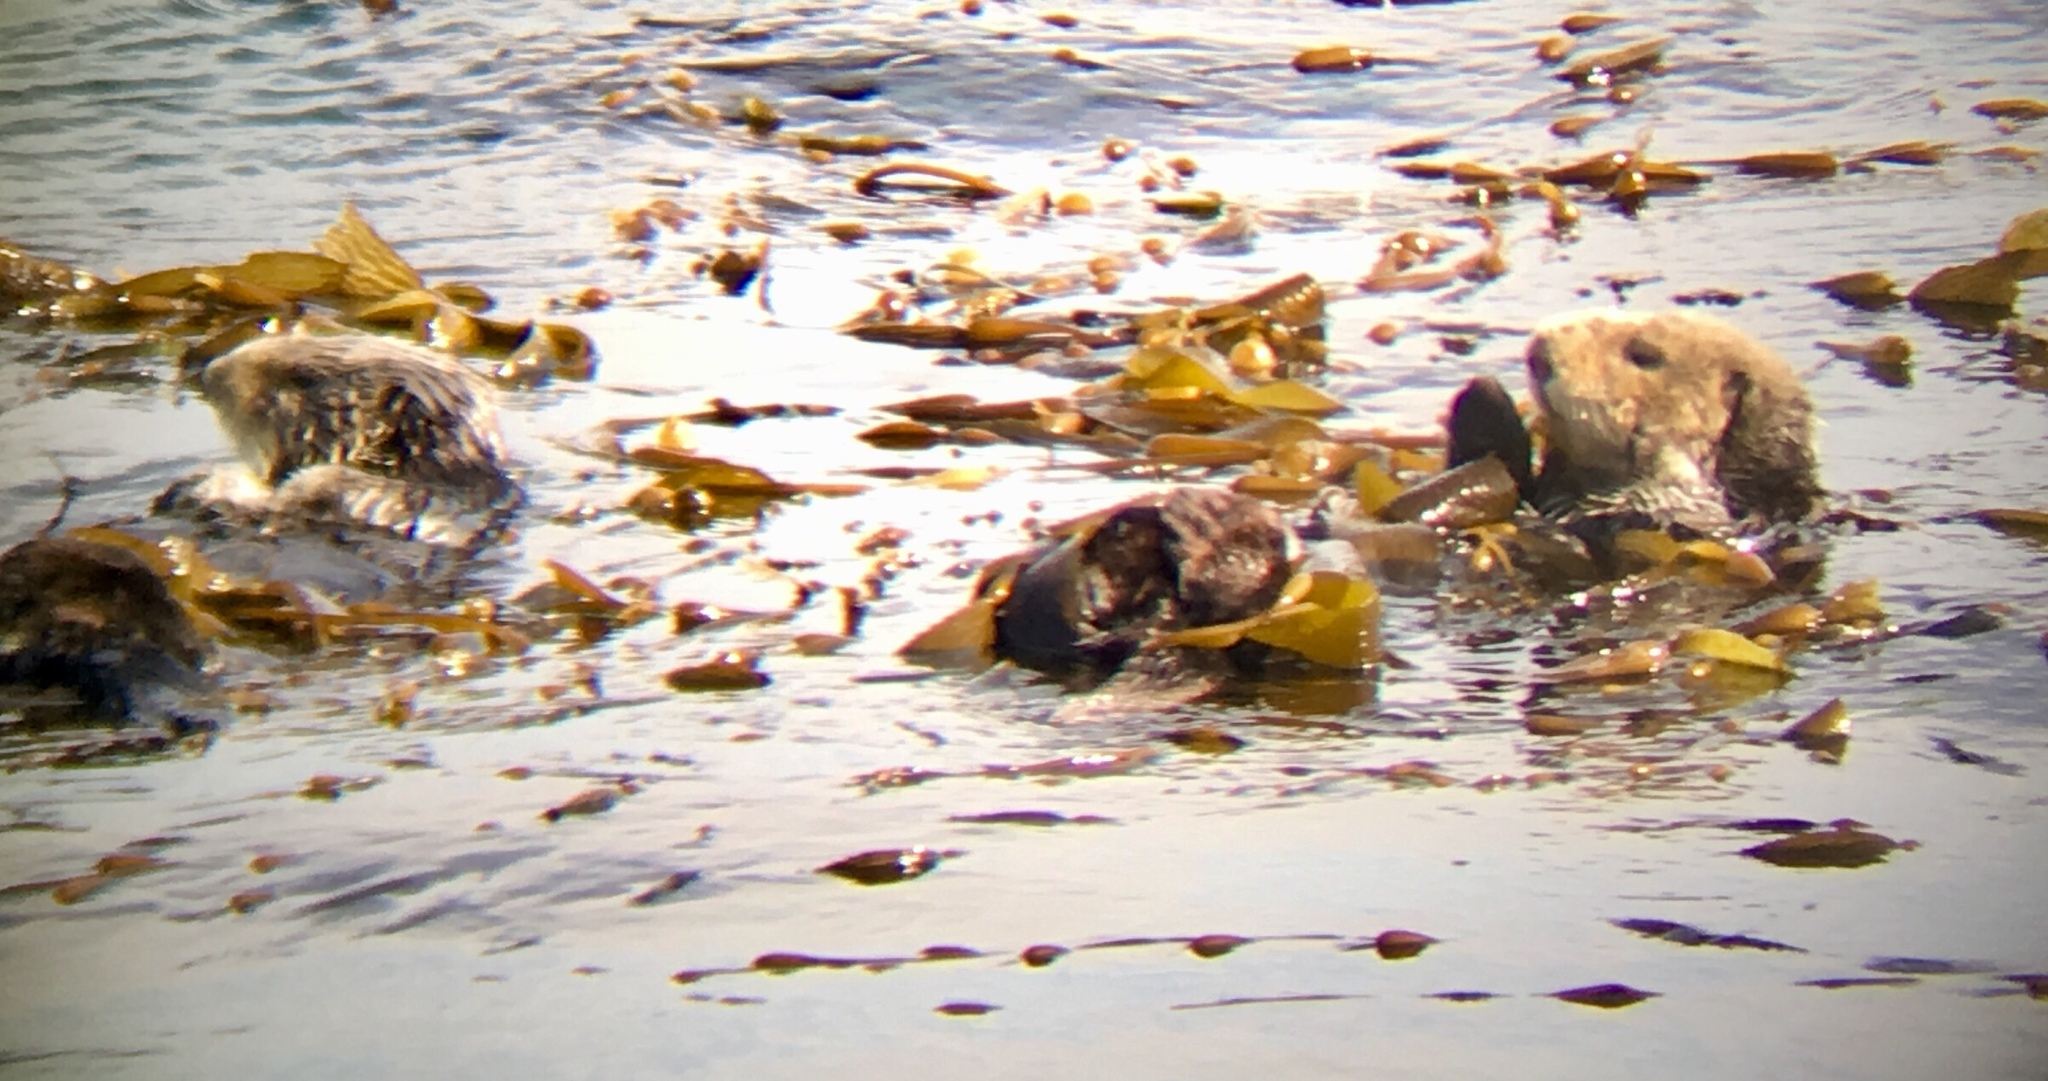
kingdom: Animalia
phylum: Chordata
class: Mammalia
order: Carnivora
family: Mustelidae
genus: Enhydra
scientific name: Enhydra lutris
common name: Sea otter
